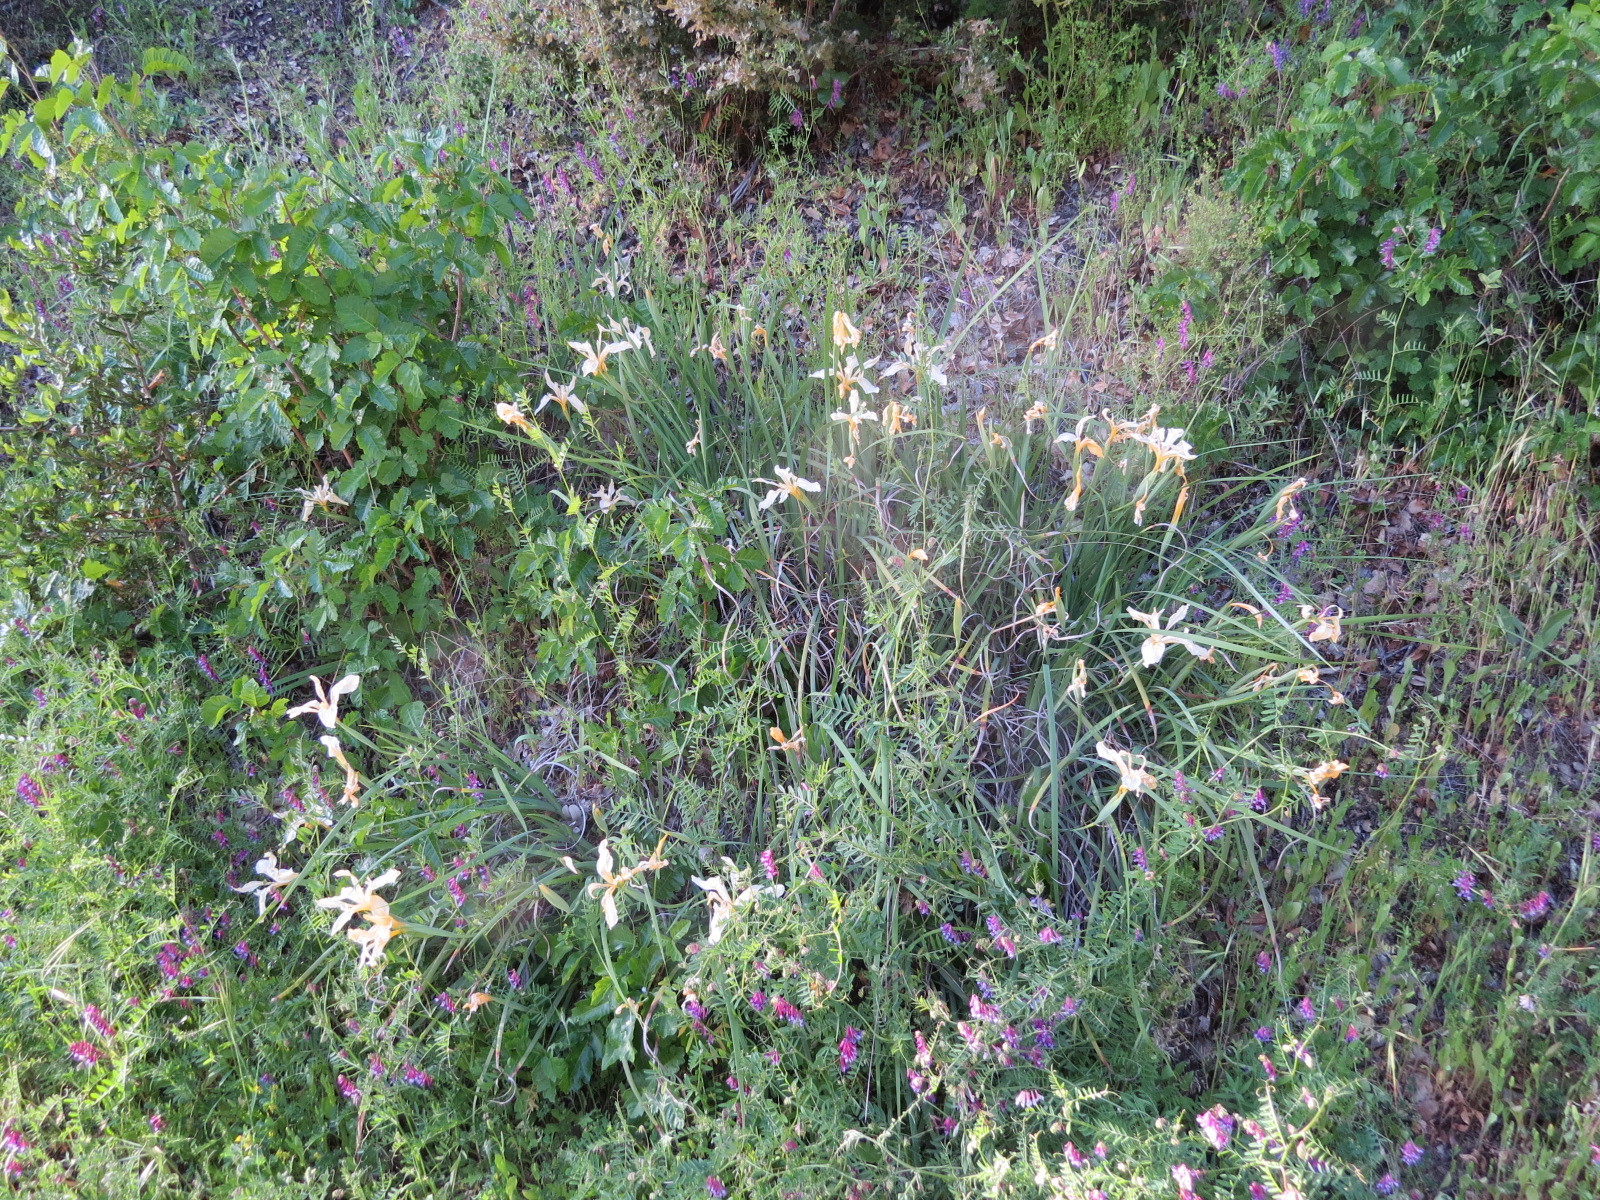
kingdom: Plantae
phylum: Tracheophyta
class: Liliopsida
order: Asparagales
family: Iridaceae
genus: Iris
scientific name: Iris fernaldii
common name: Fernald's iris
